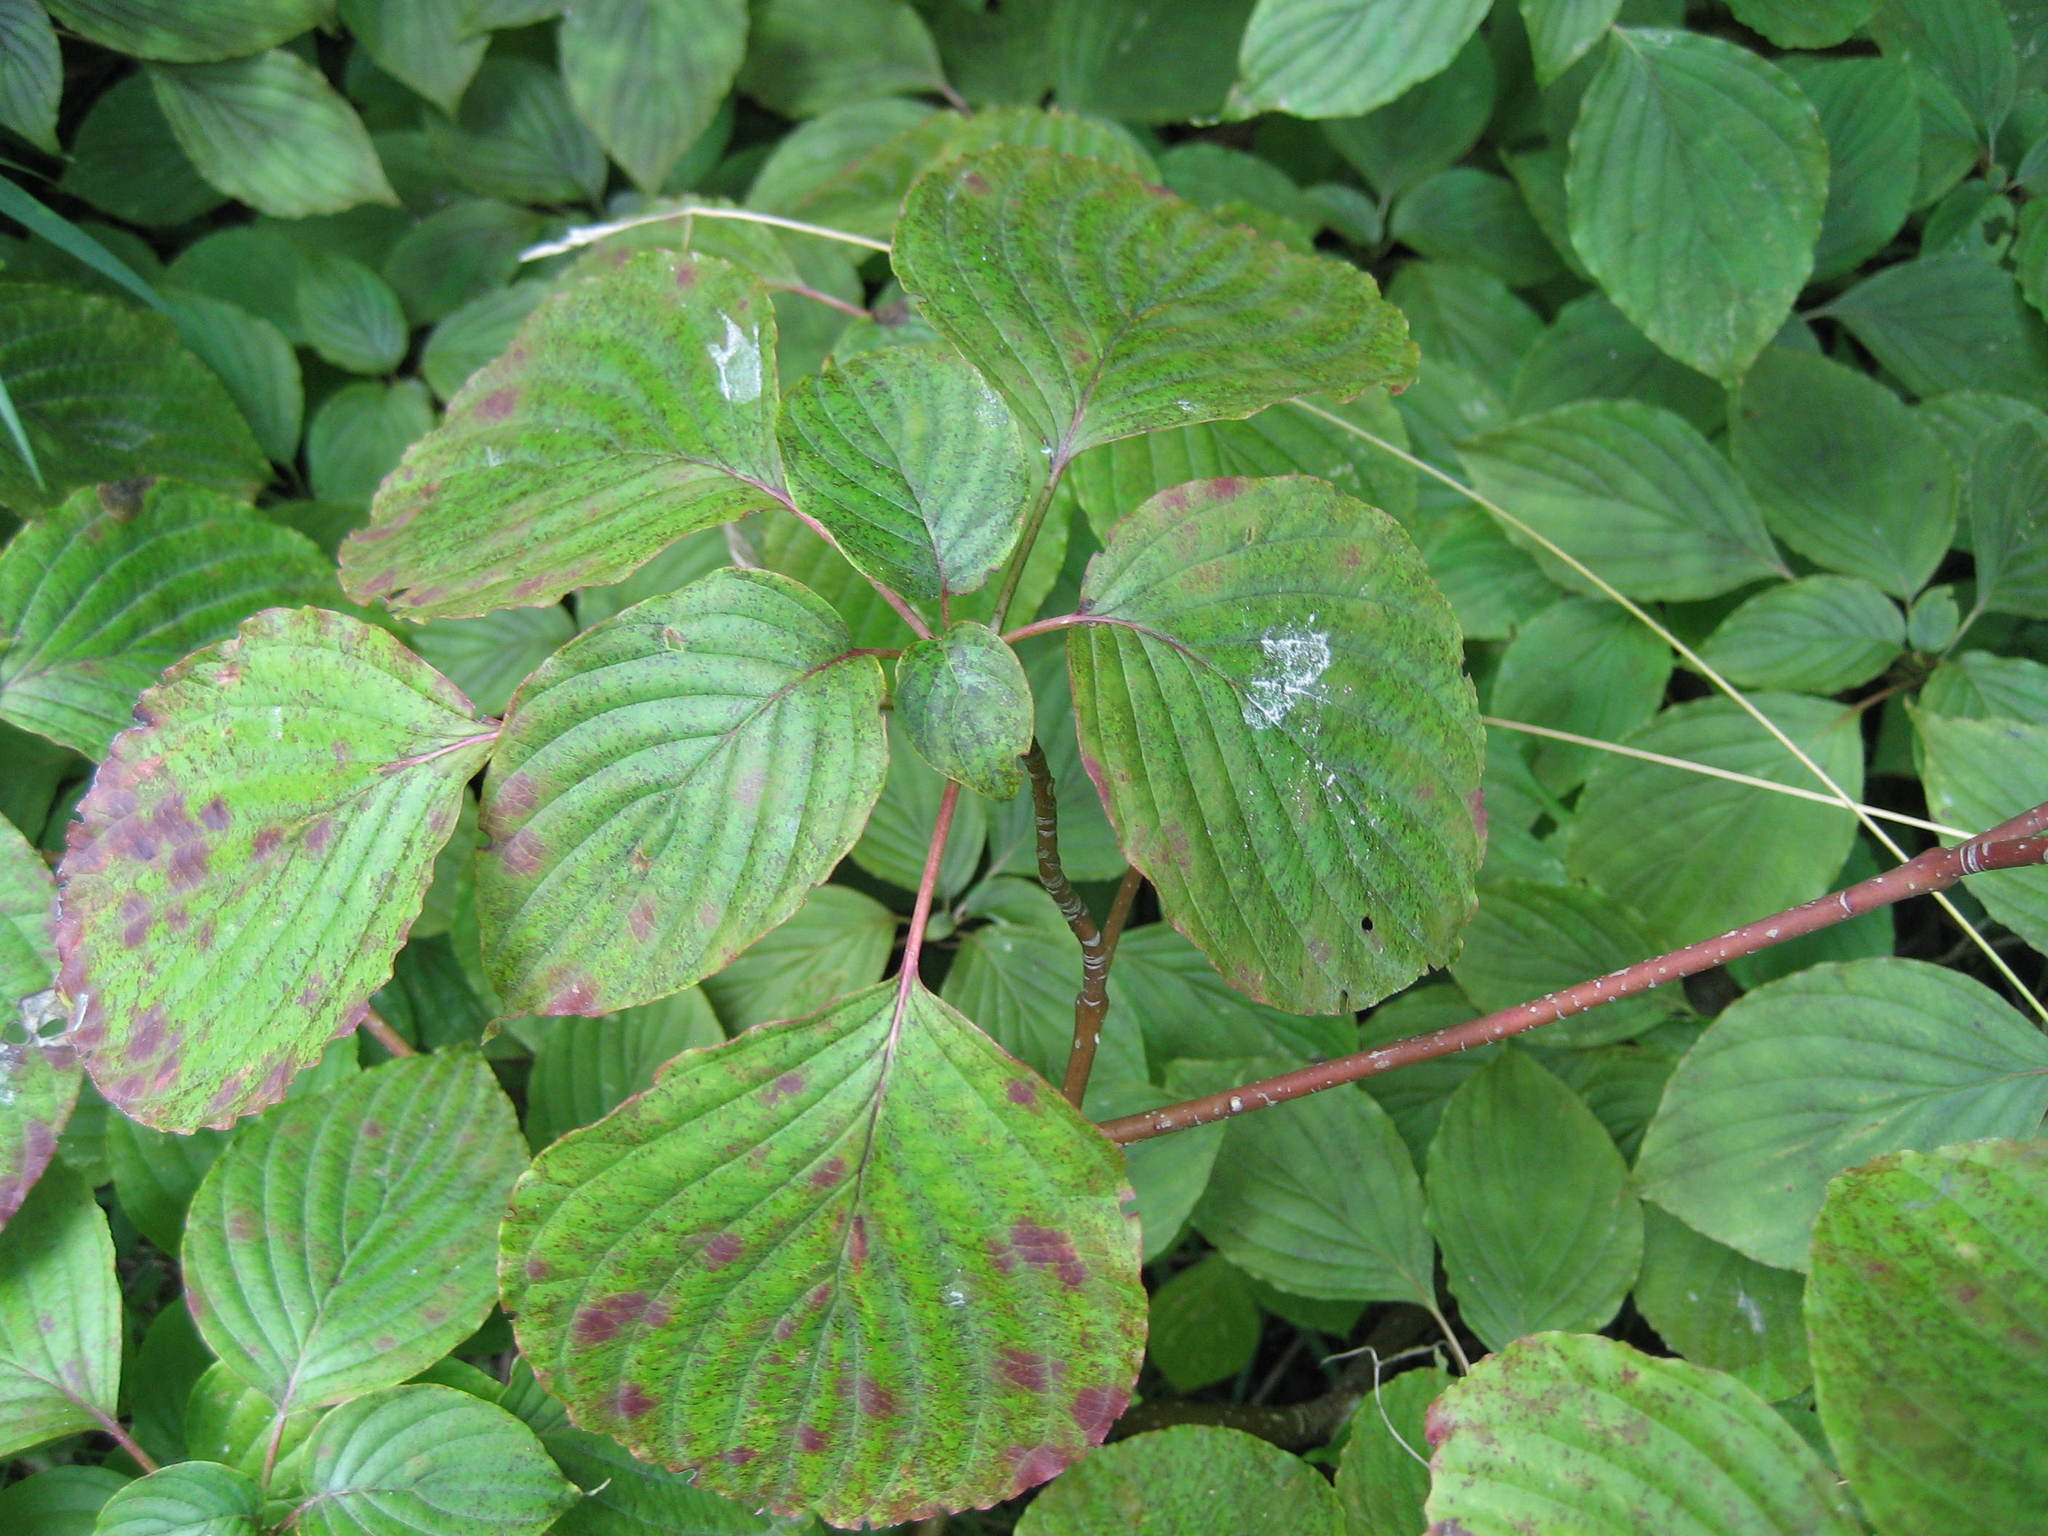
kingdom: Plantae
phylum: Tracheophyta
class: Magnoliopsida
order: Cornales
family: Cornaceae
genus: Cornus
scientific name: Cornus alternifolia
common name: Pagoda dogwood
